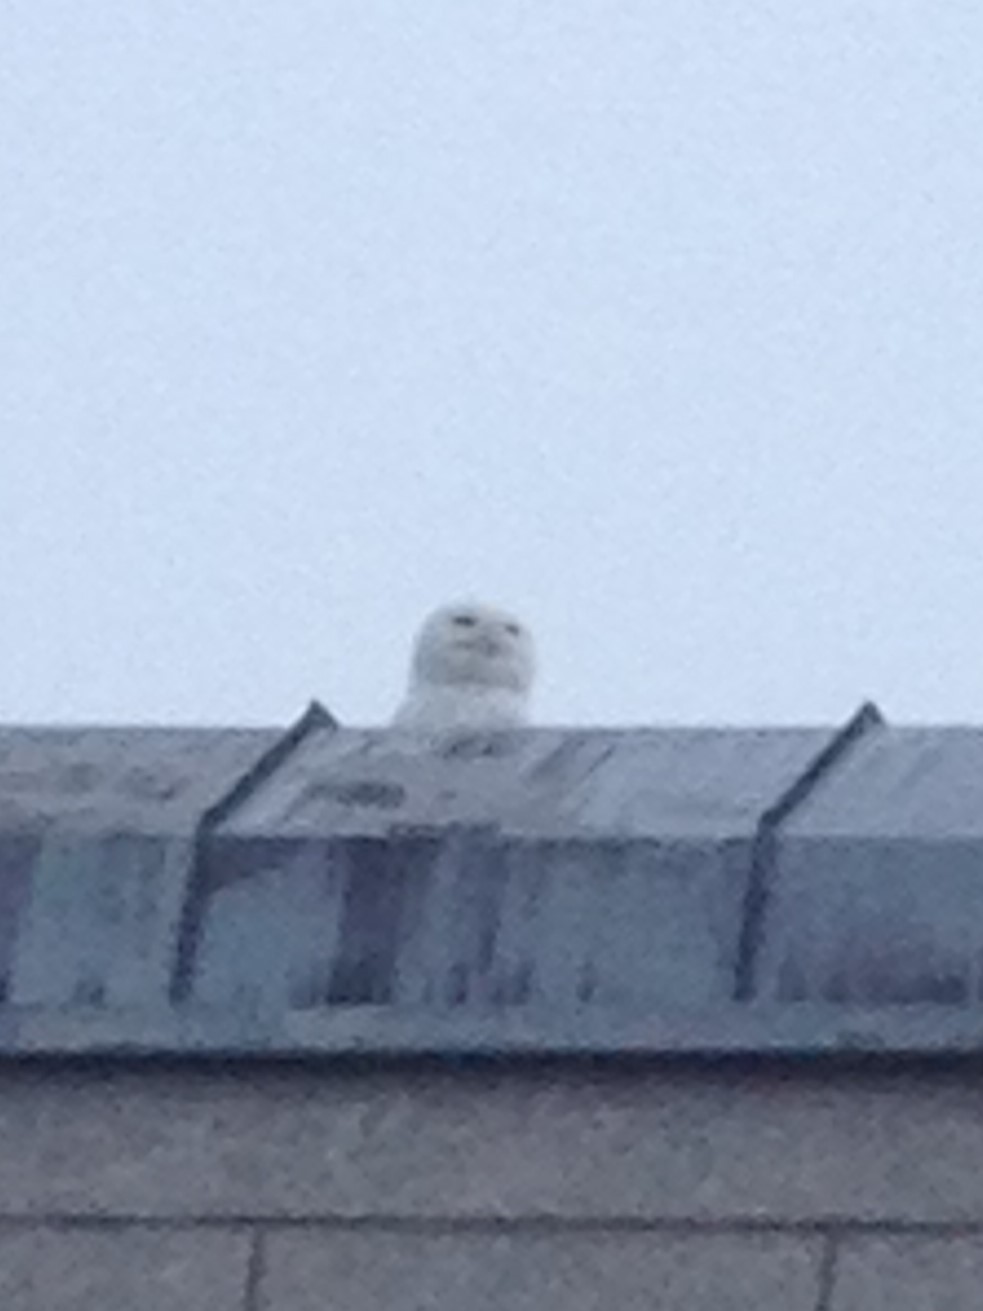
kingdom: Animalia
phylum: Chordata
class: Aves
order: Strigiformes
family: Strigidae
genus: Bubo
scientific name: Bubo scandiacus
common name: Snowy owl
